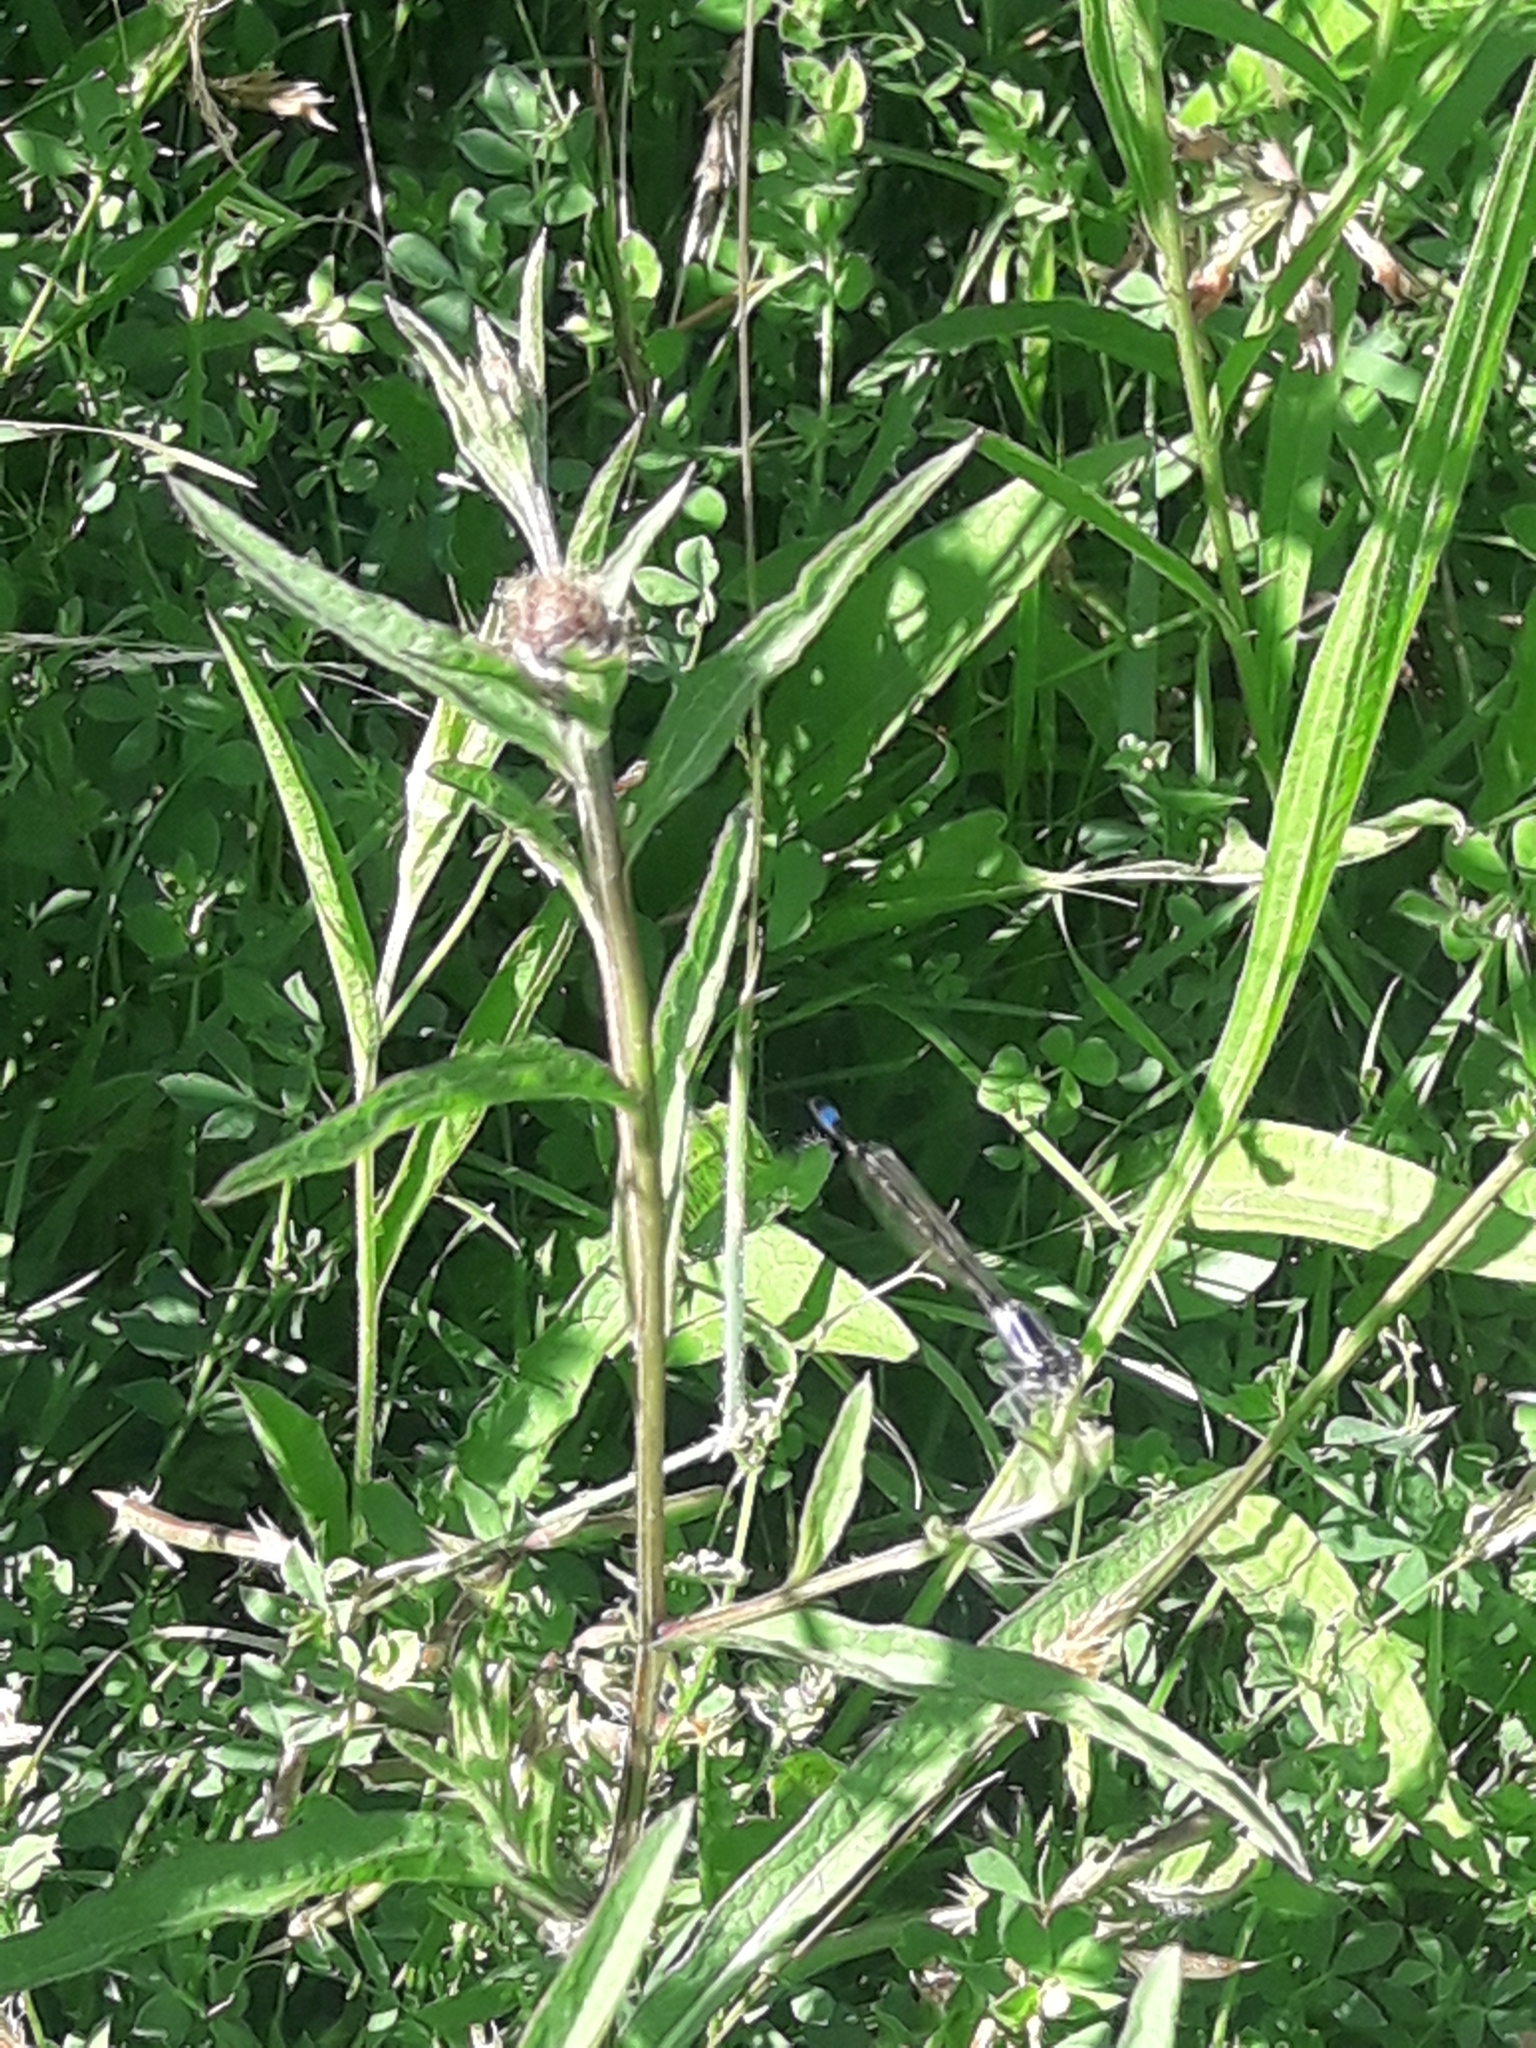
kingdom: Animalia
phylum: Arthropoda
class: Insecta
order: Odonata
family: Coenagrionidae
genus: Ischnura
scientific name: Ischnura elegans
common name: Blue-tailed damselfly
